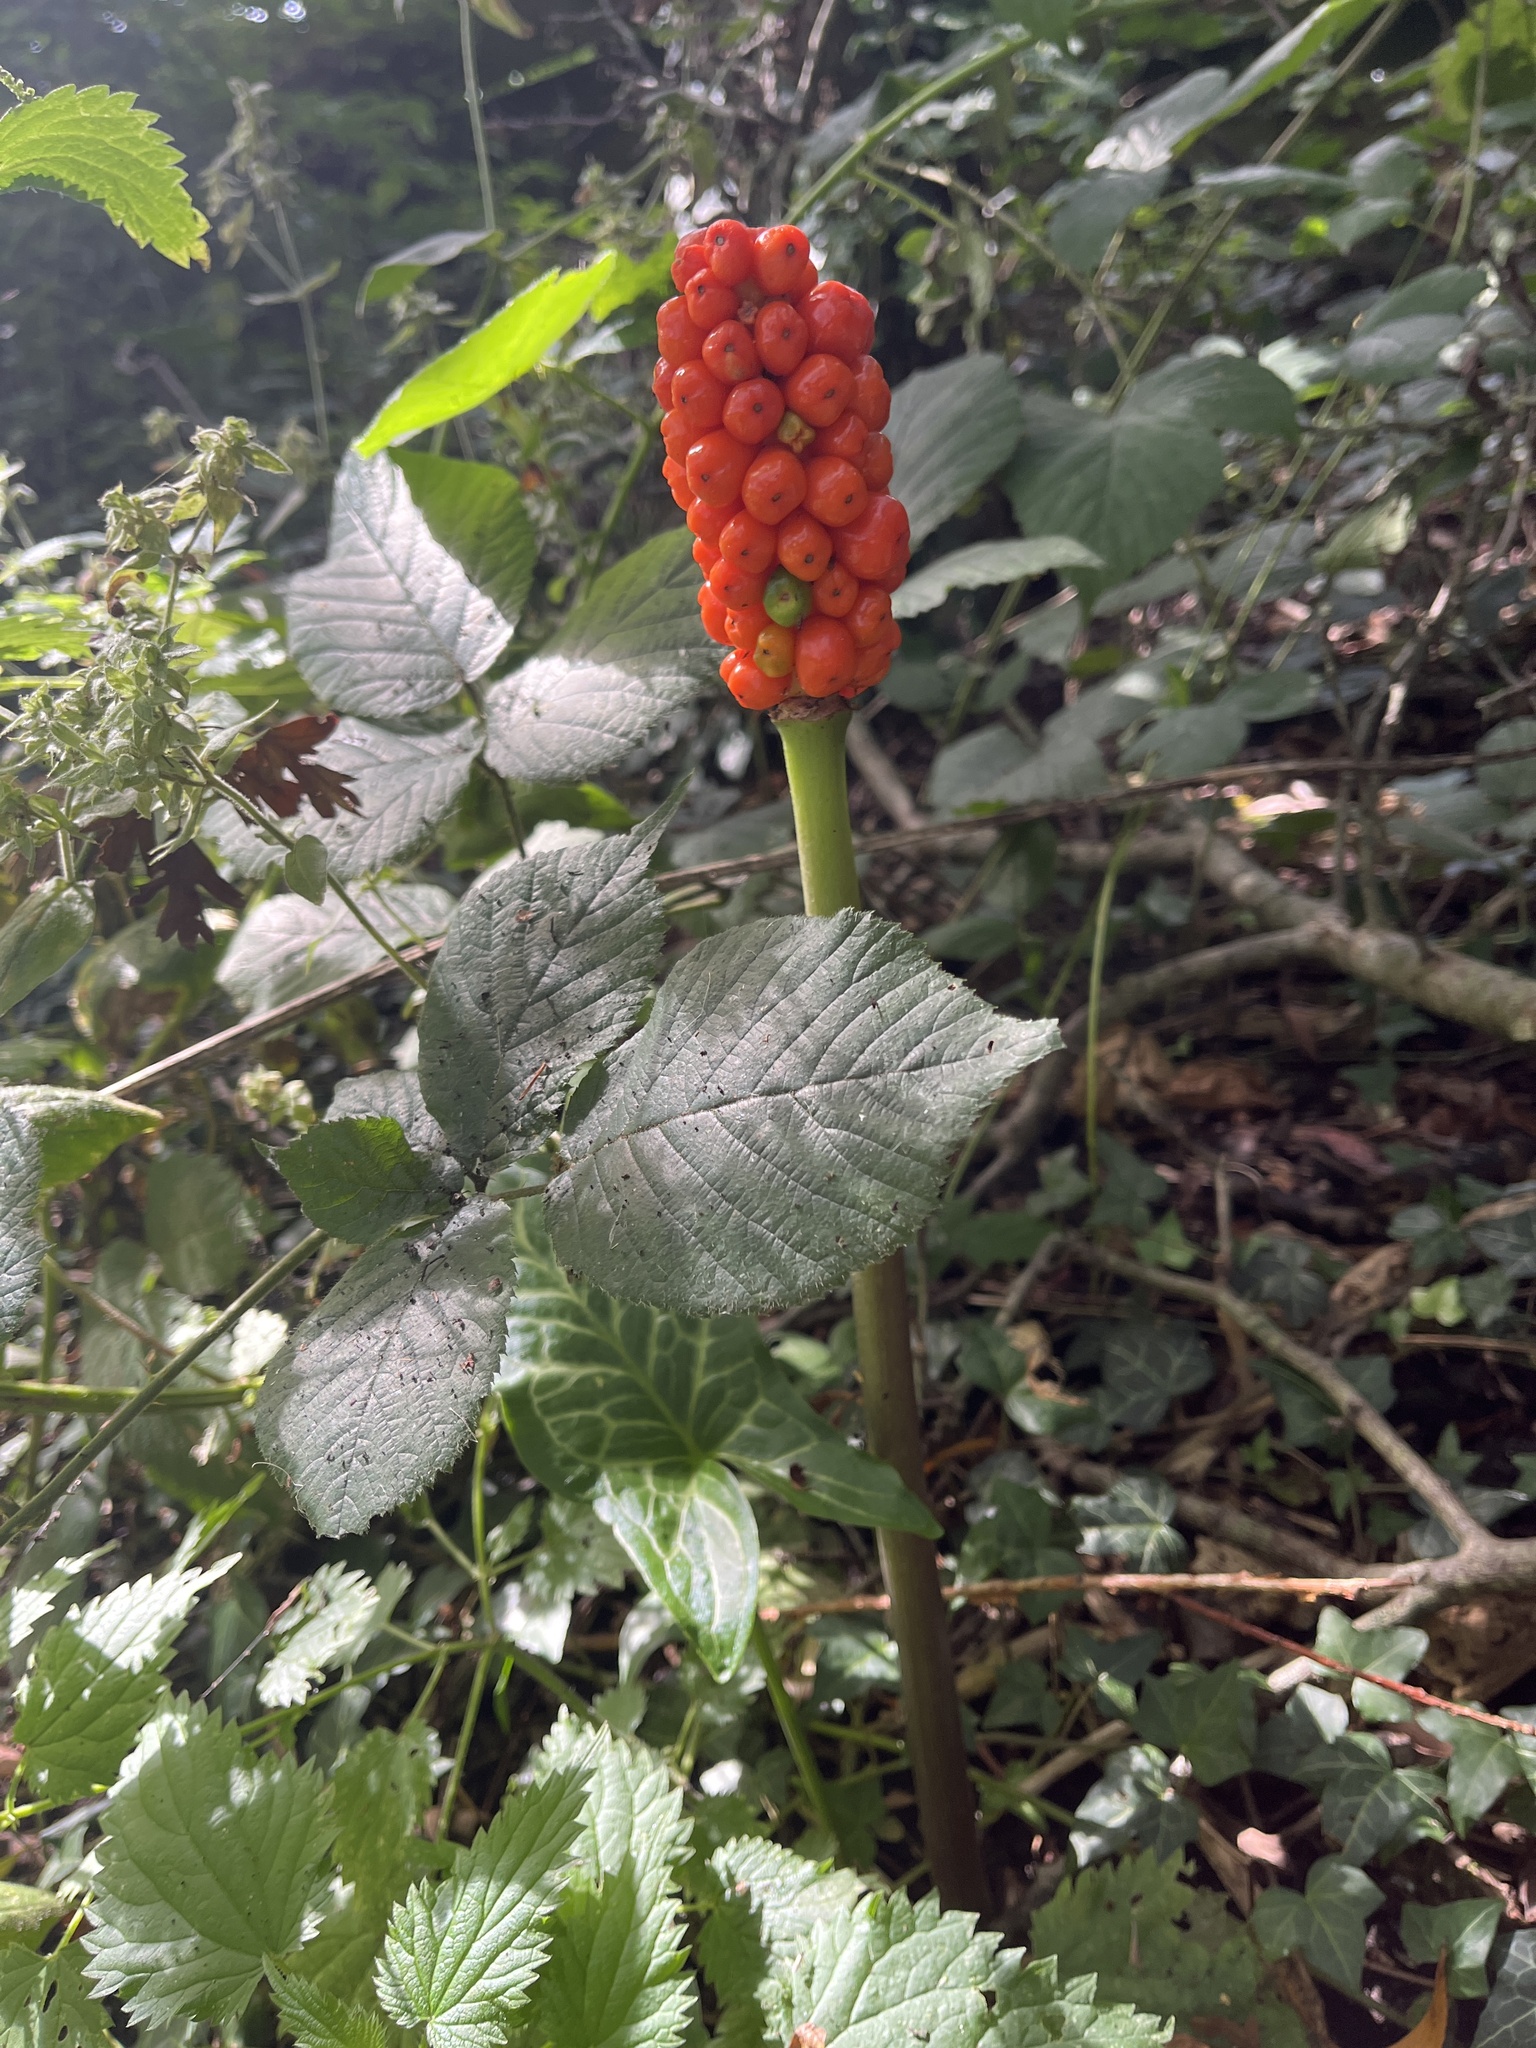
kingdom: Plantae
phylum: Tracheophyta
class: Liliopsida
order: Alismatales
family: Araceae
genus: Arum
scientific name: Arum italicum
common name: Italian lords-and-ladies
